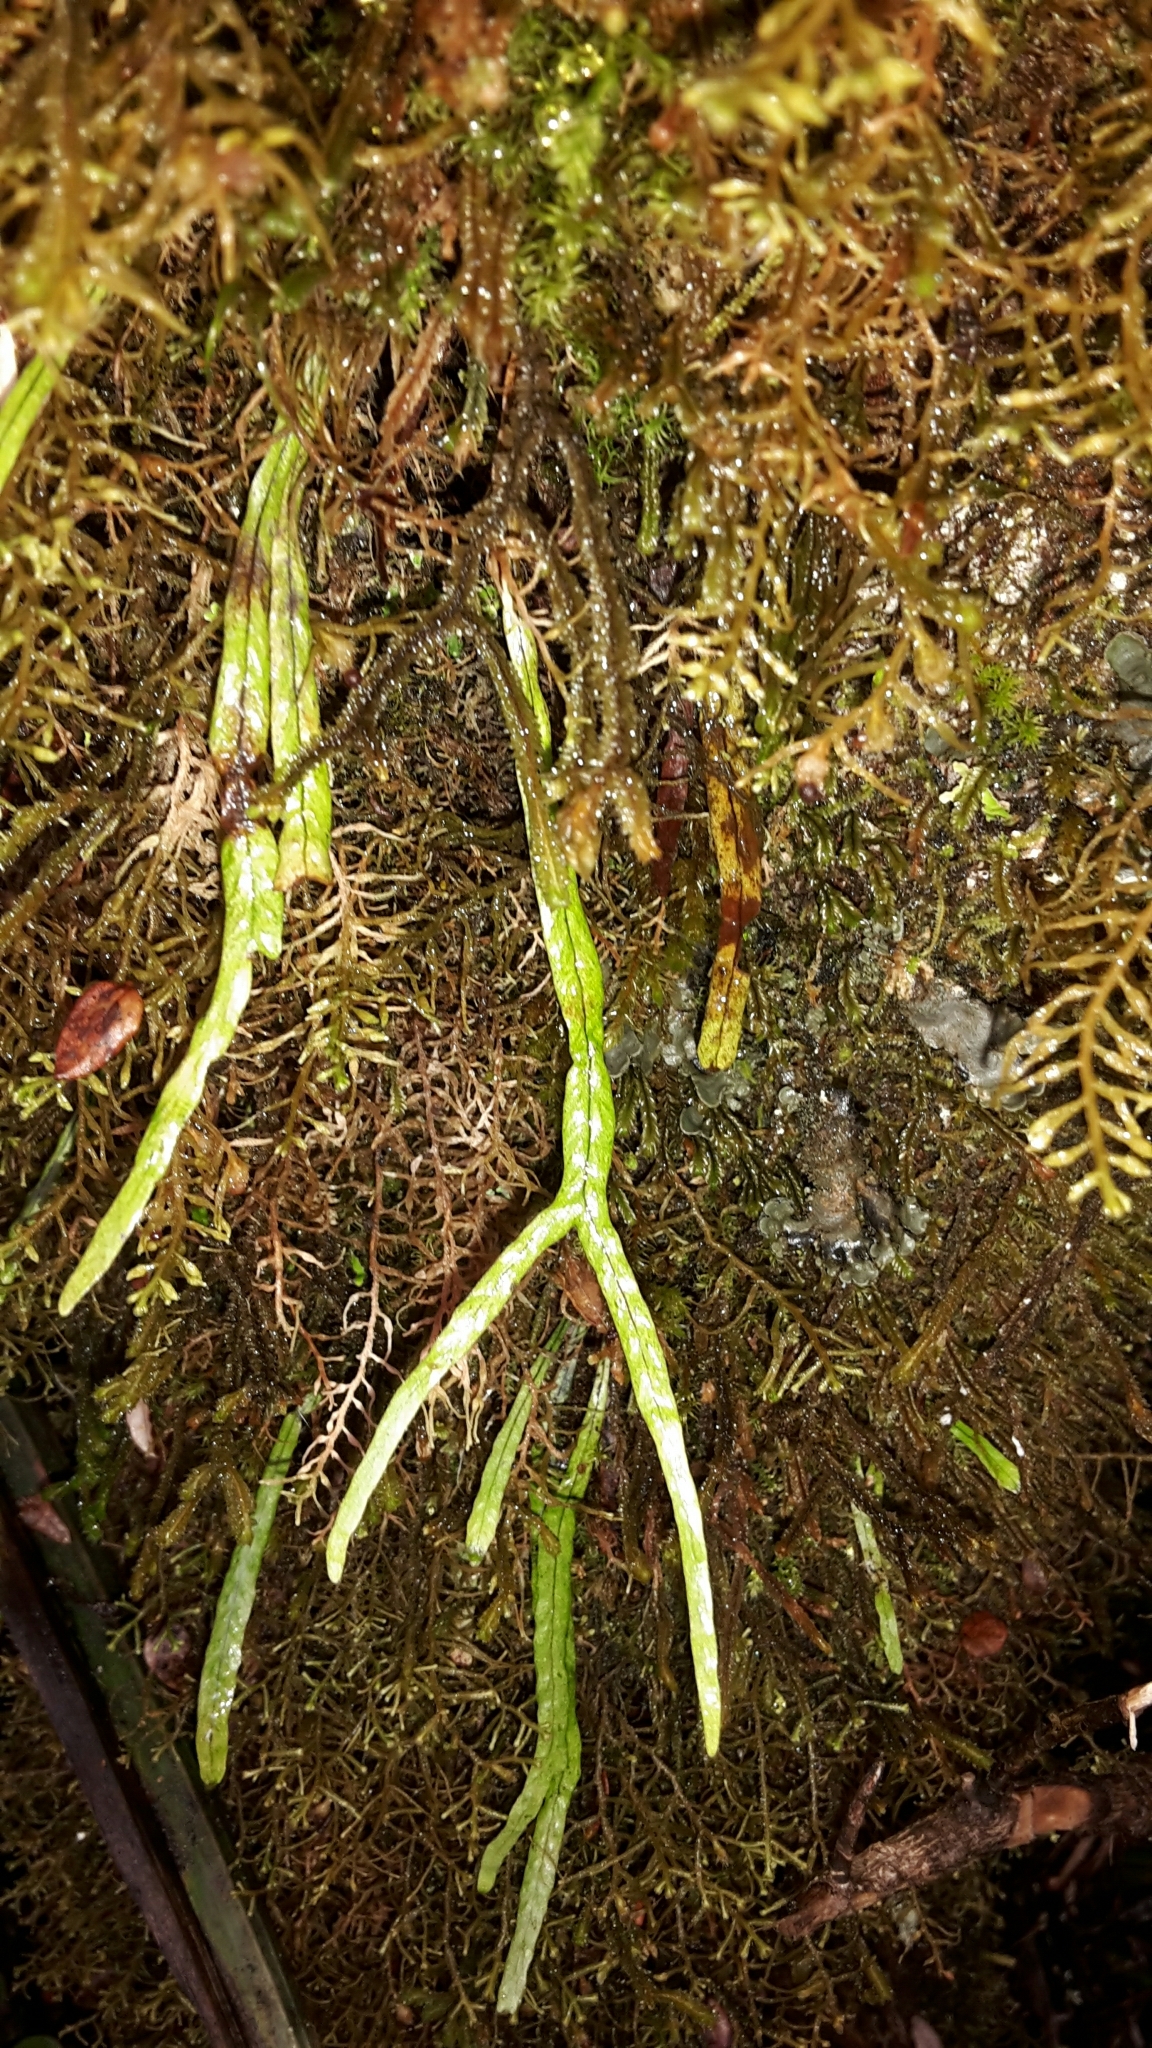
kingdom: Plantae
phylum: Tracheophyta
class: Polypodiopsida
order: Polypodiales
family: Polypodiaceae
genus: Notogrammitis
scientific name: Notogrammitis angustifolia
